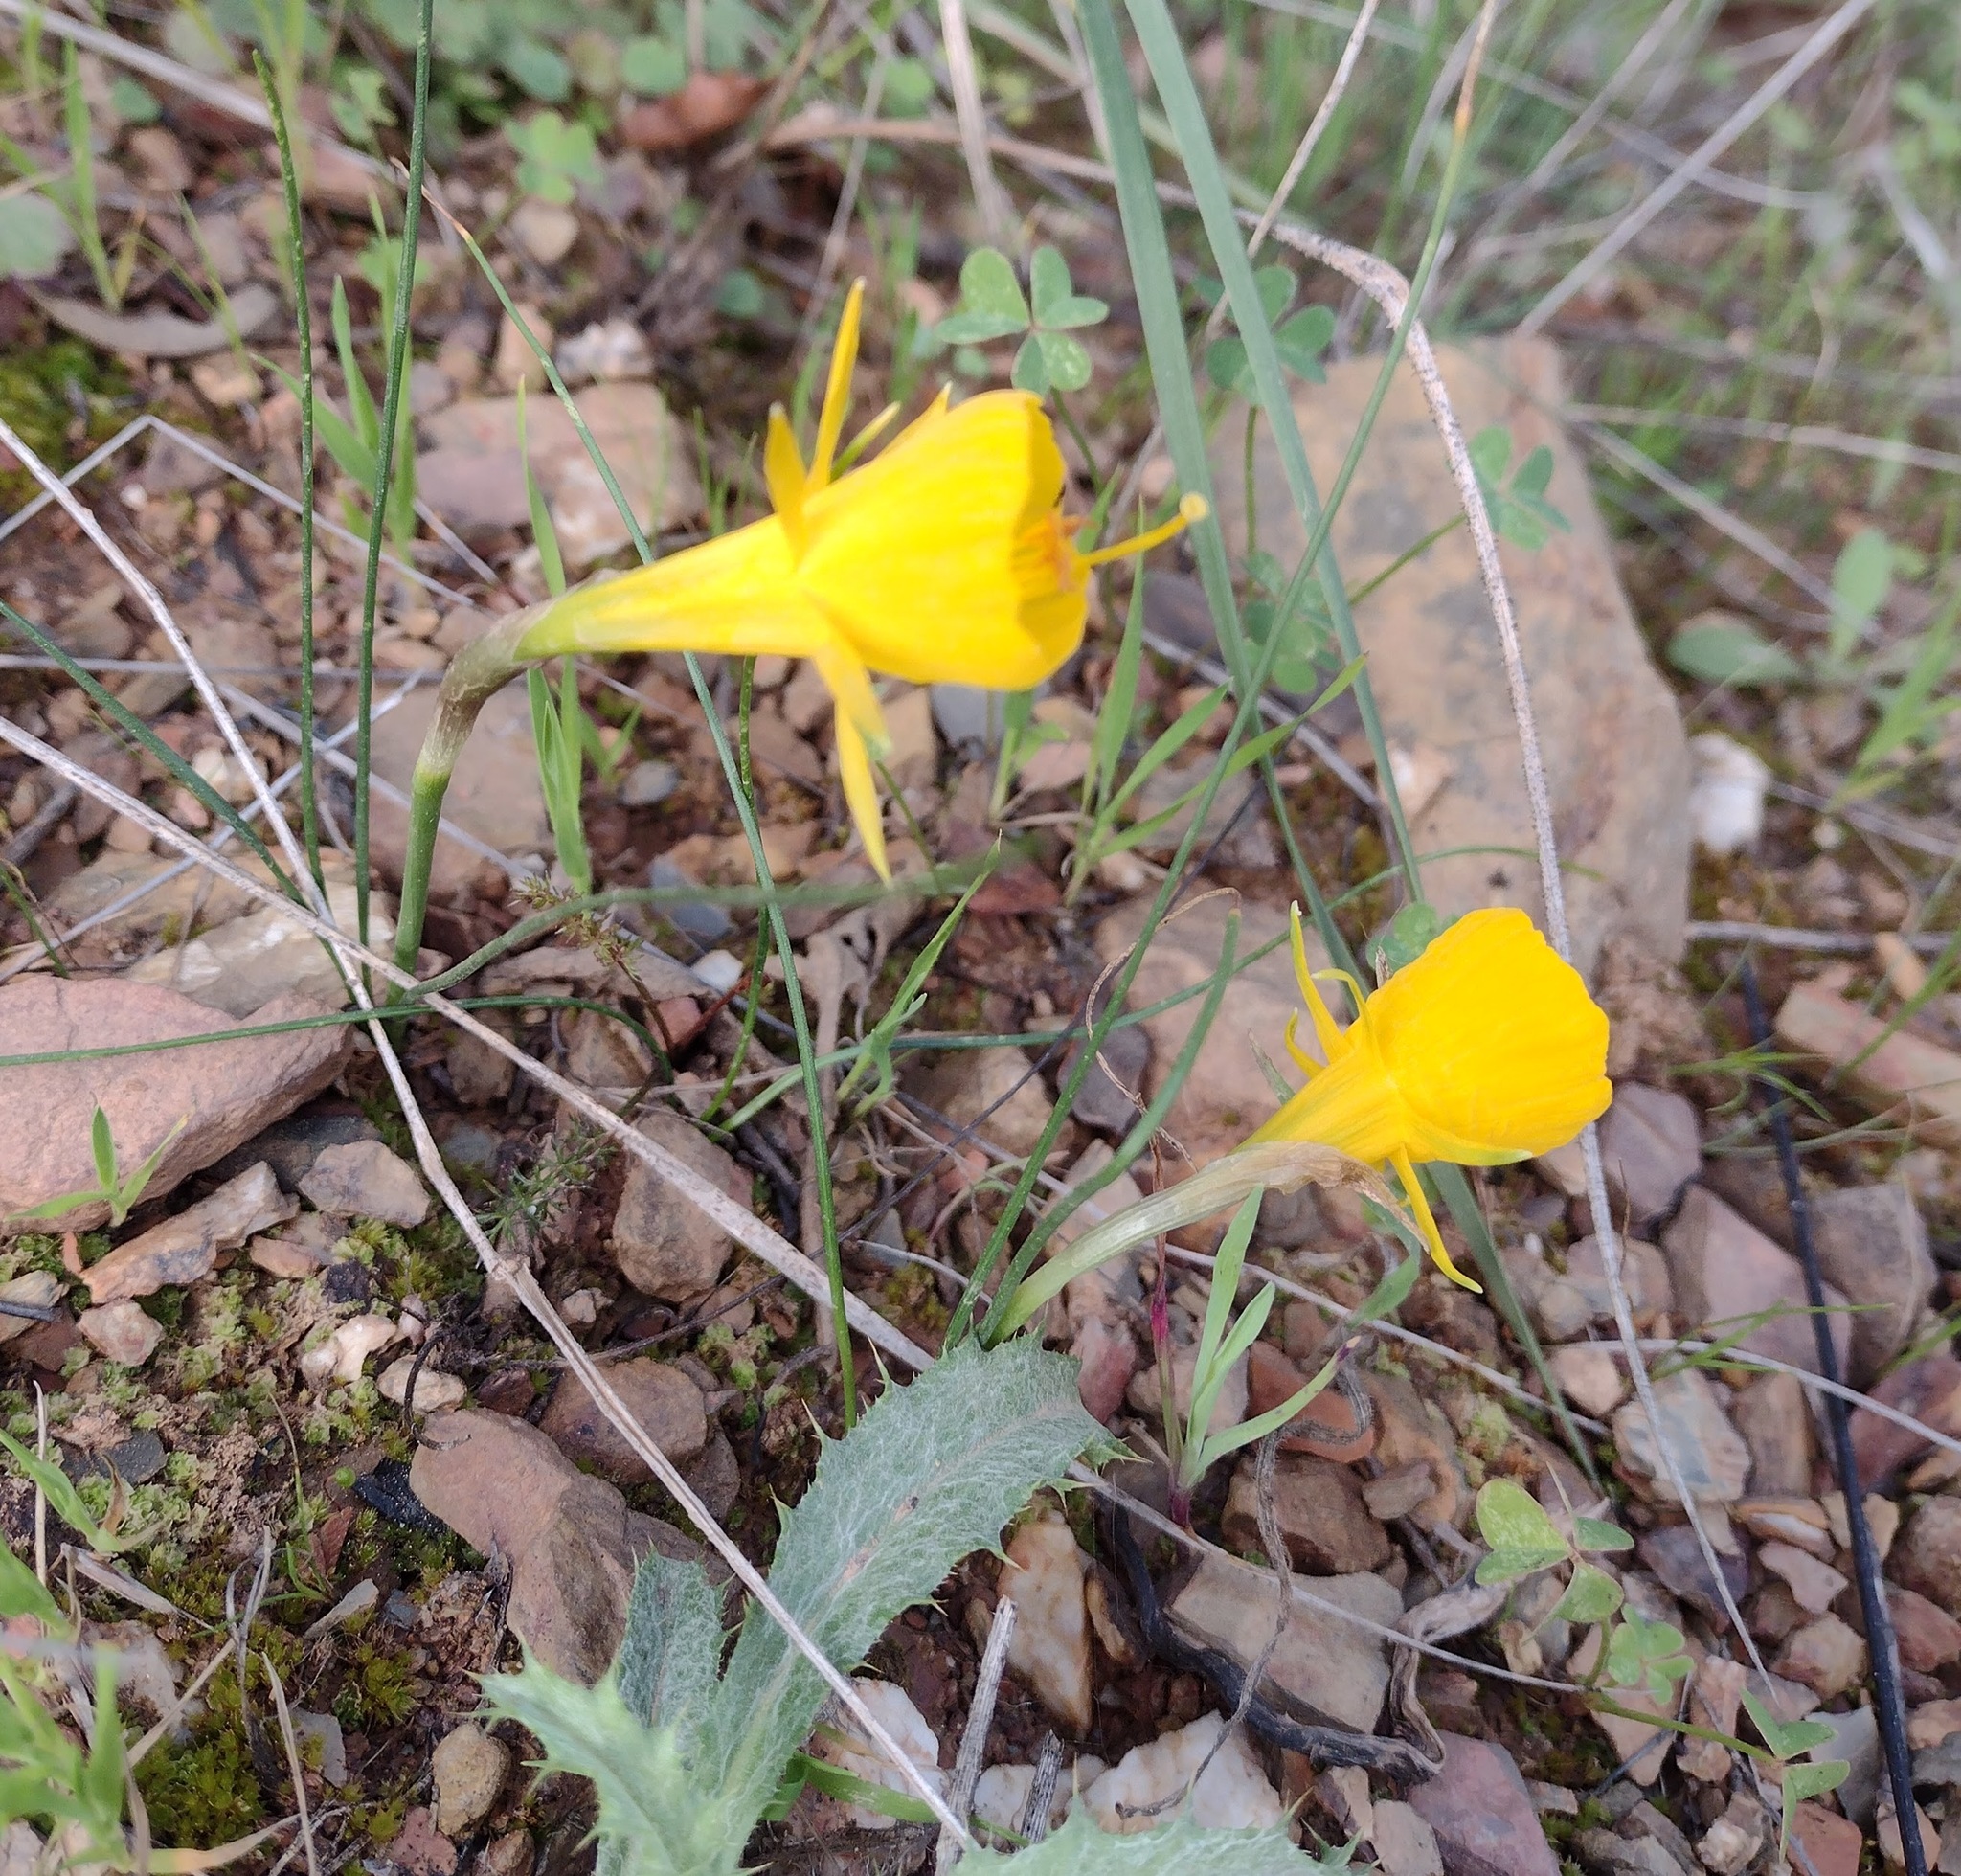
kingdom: Plantae
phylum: Tracheophyta
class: Liliopsida
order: Asparagales
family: Amaryllidaceae
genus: Narcissus
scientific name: Narcissus bulbocodium
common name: Hoop-petticoat daffodil
